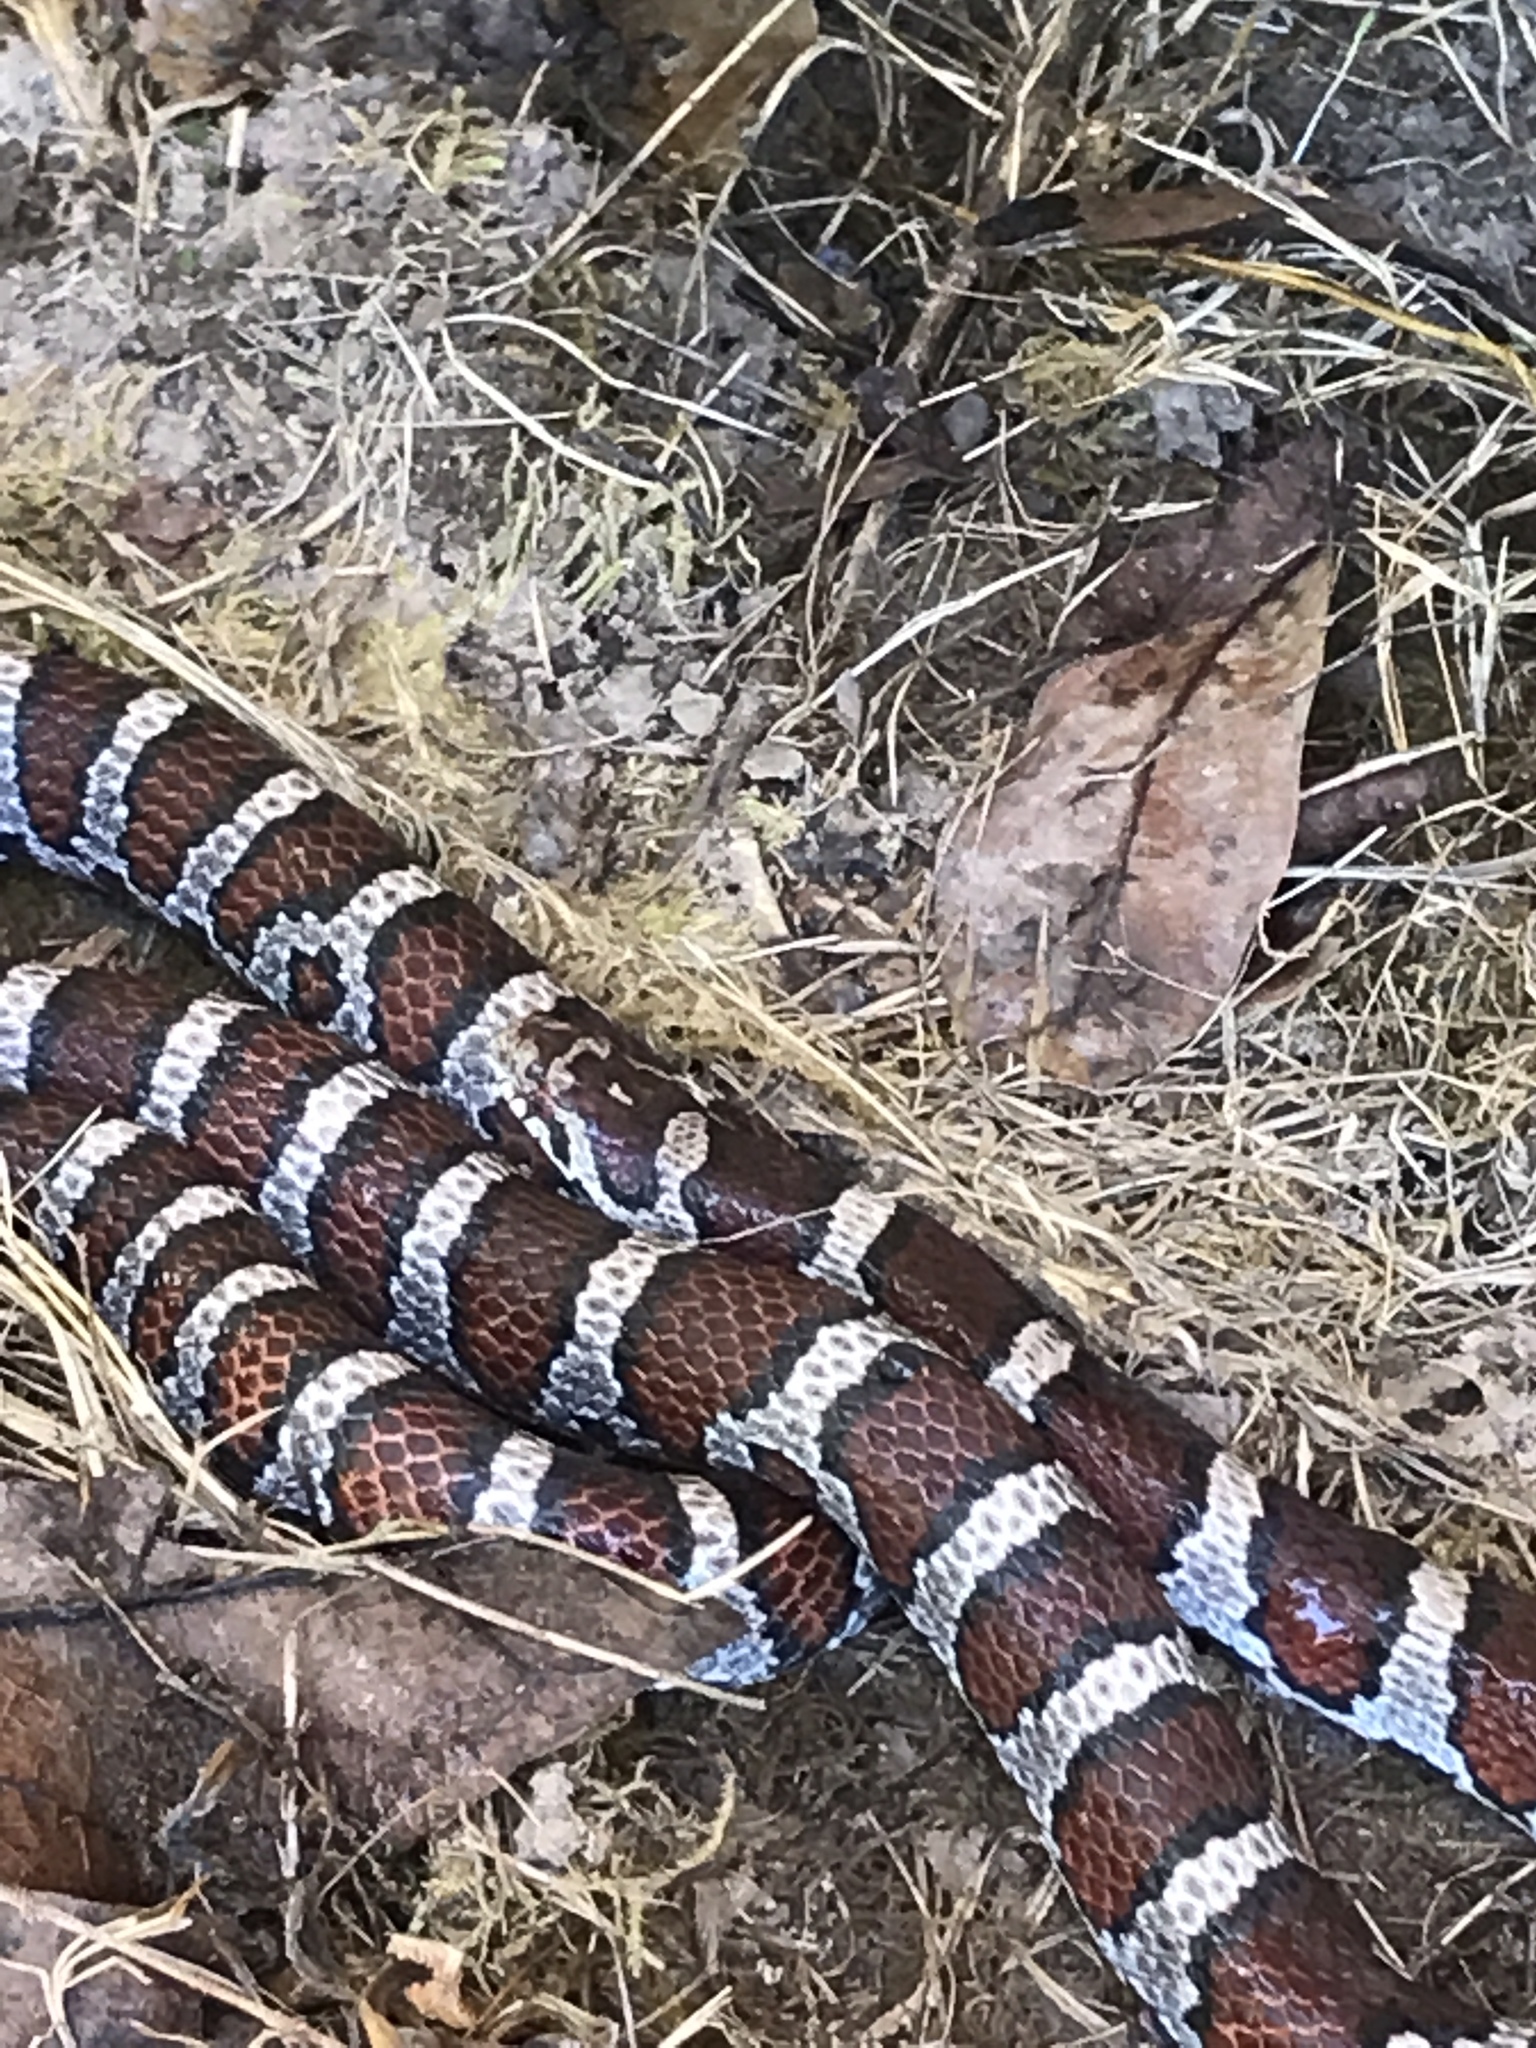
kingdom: Animalia
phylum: Chordata
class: Squamata
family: Colubridae
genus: Lampropeltis
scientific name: Lampropeltis triangulum
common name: Eastern milksnake
